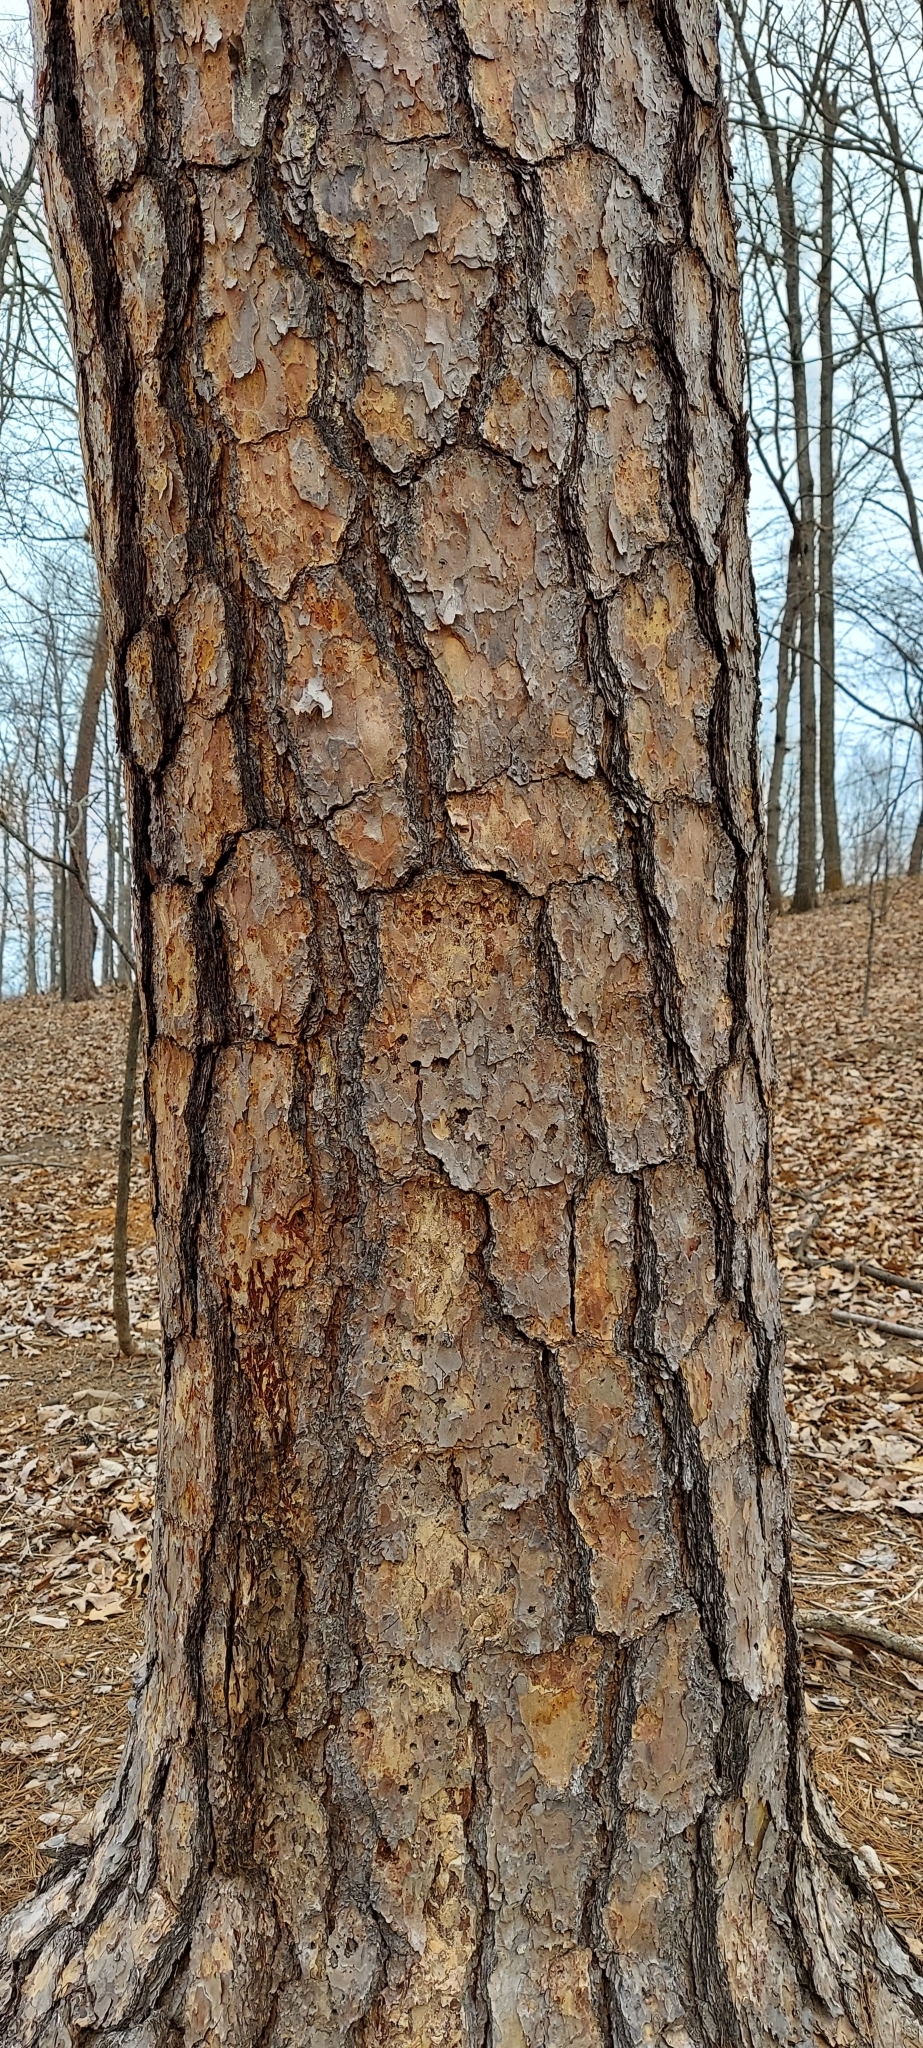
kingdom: Plantae
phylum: Tracheophyta
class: Pinopsida
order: Pinales
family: Pinaceae
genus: Pinus
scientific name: Pinus echinata
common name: Shortleaf pine
